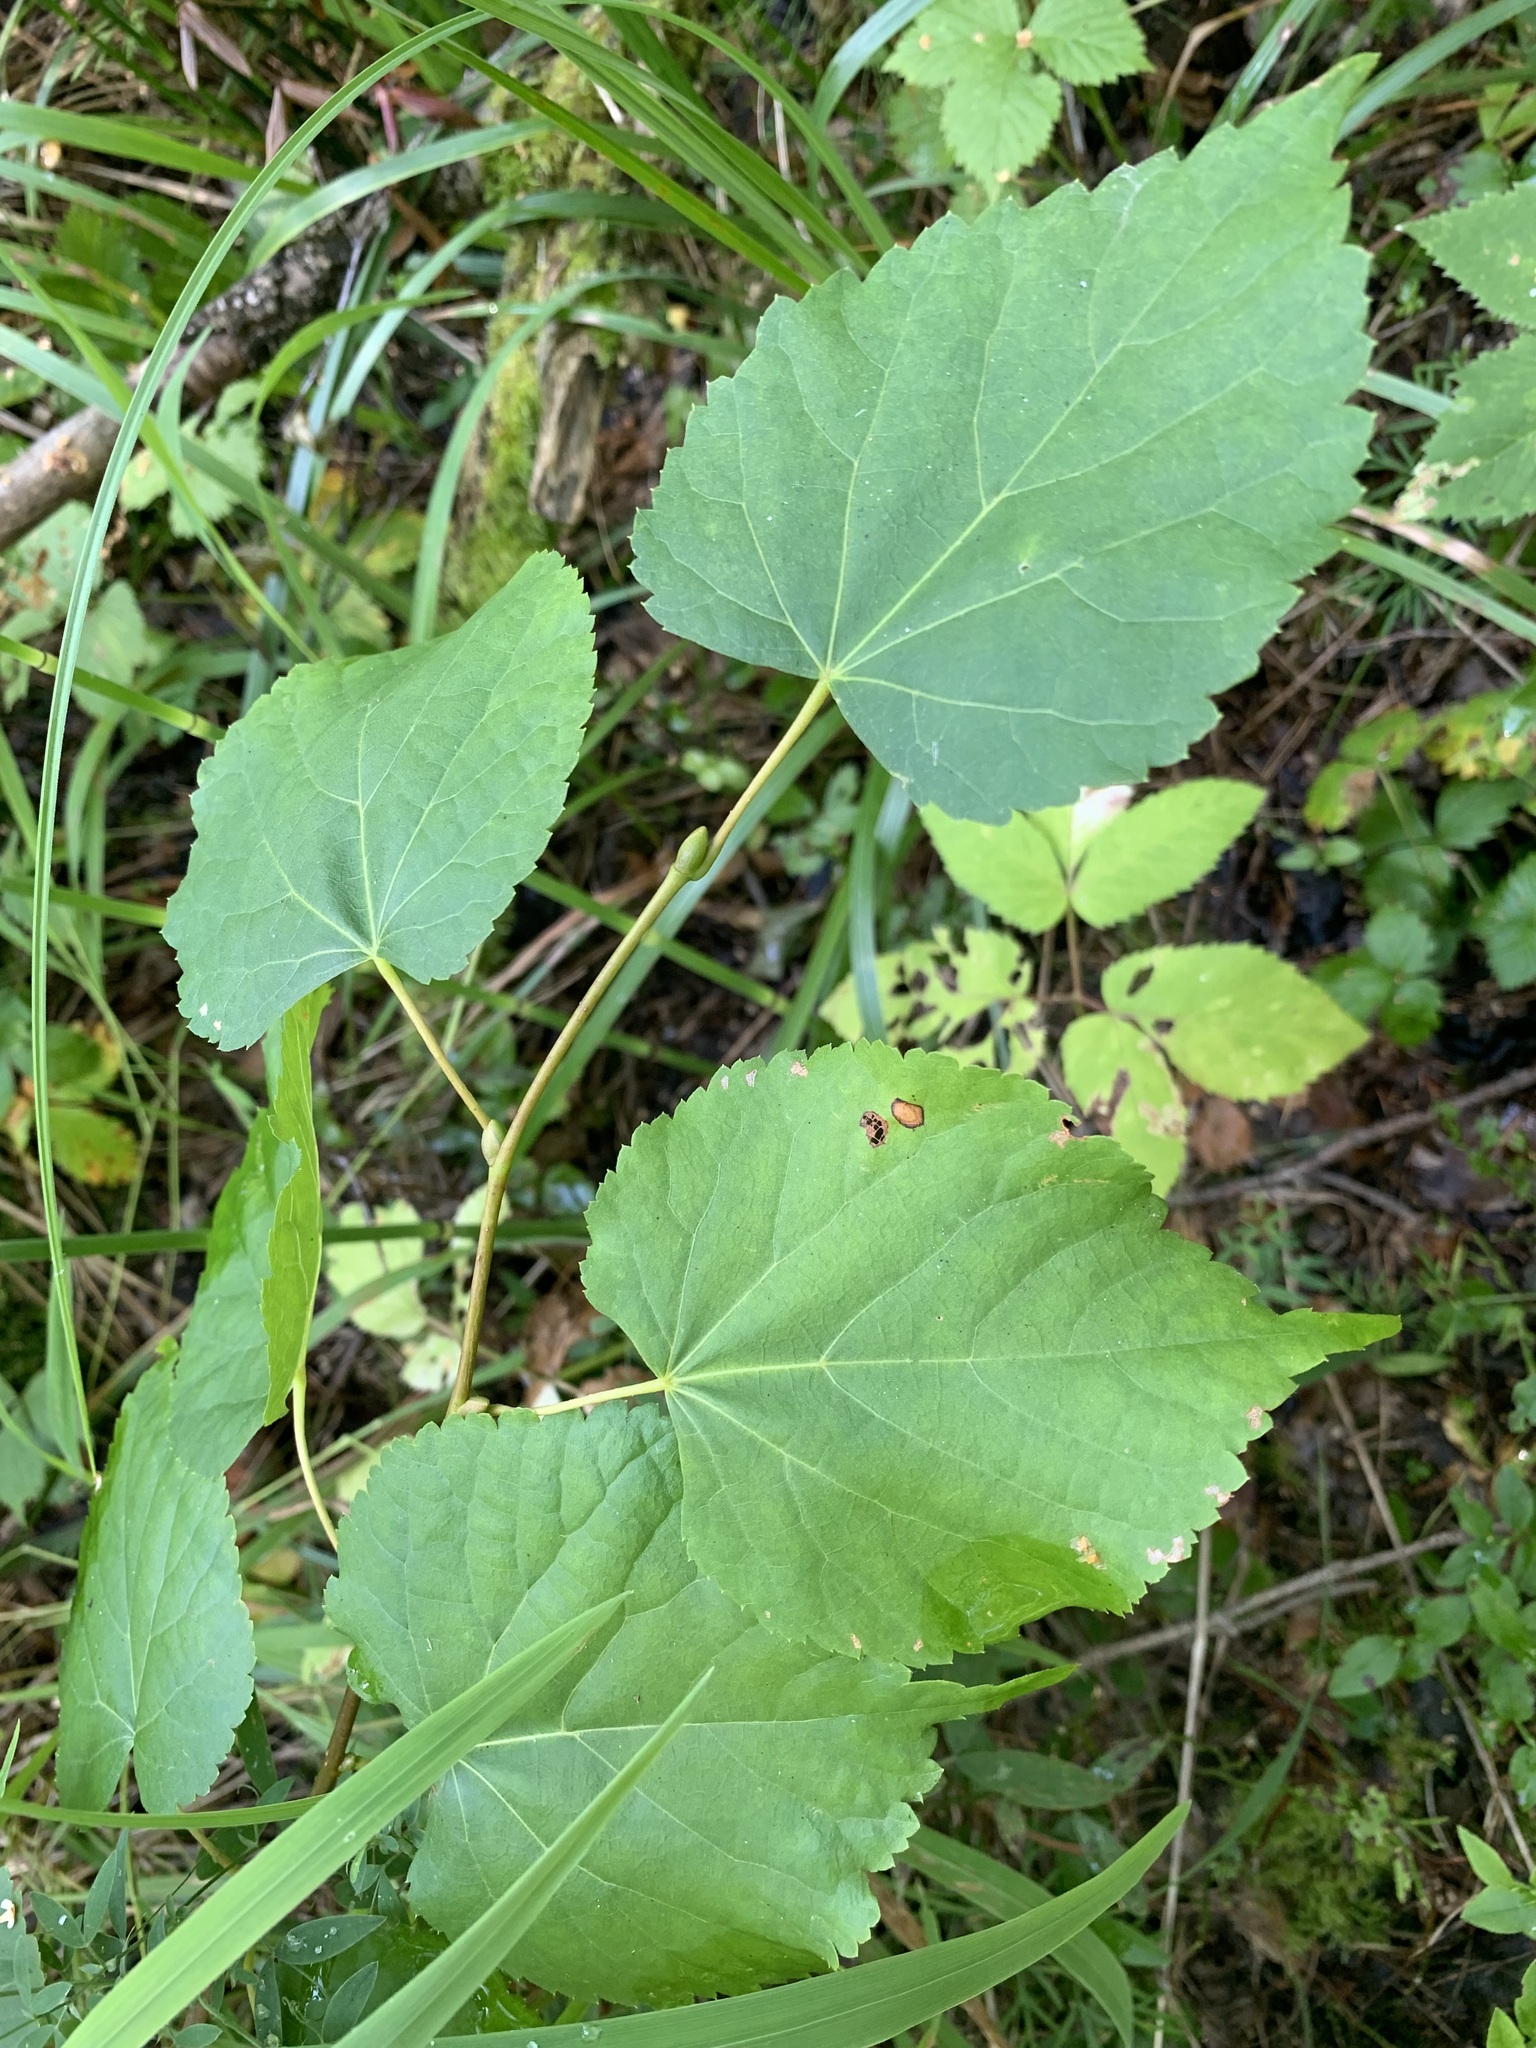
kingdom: Plantae
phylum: Tracheophyta
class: Magnoliopsida
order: Malvales
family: Malvaceae
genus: Tilia
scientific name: Tilia cordata
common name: Small-leaved lime
